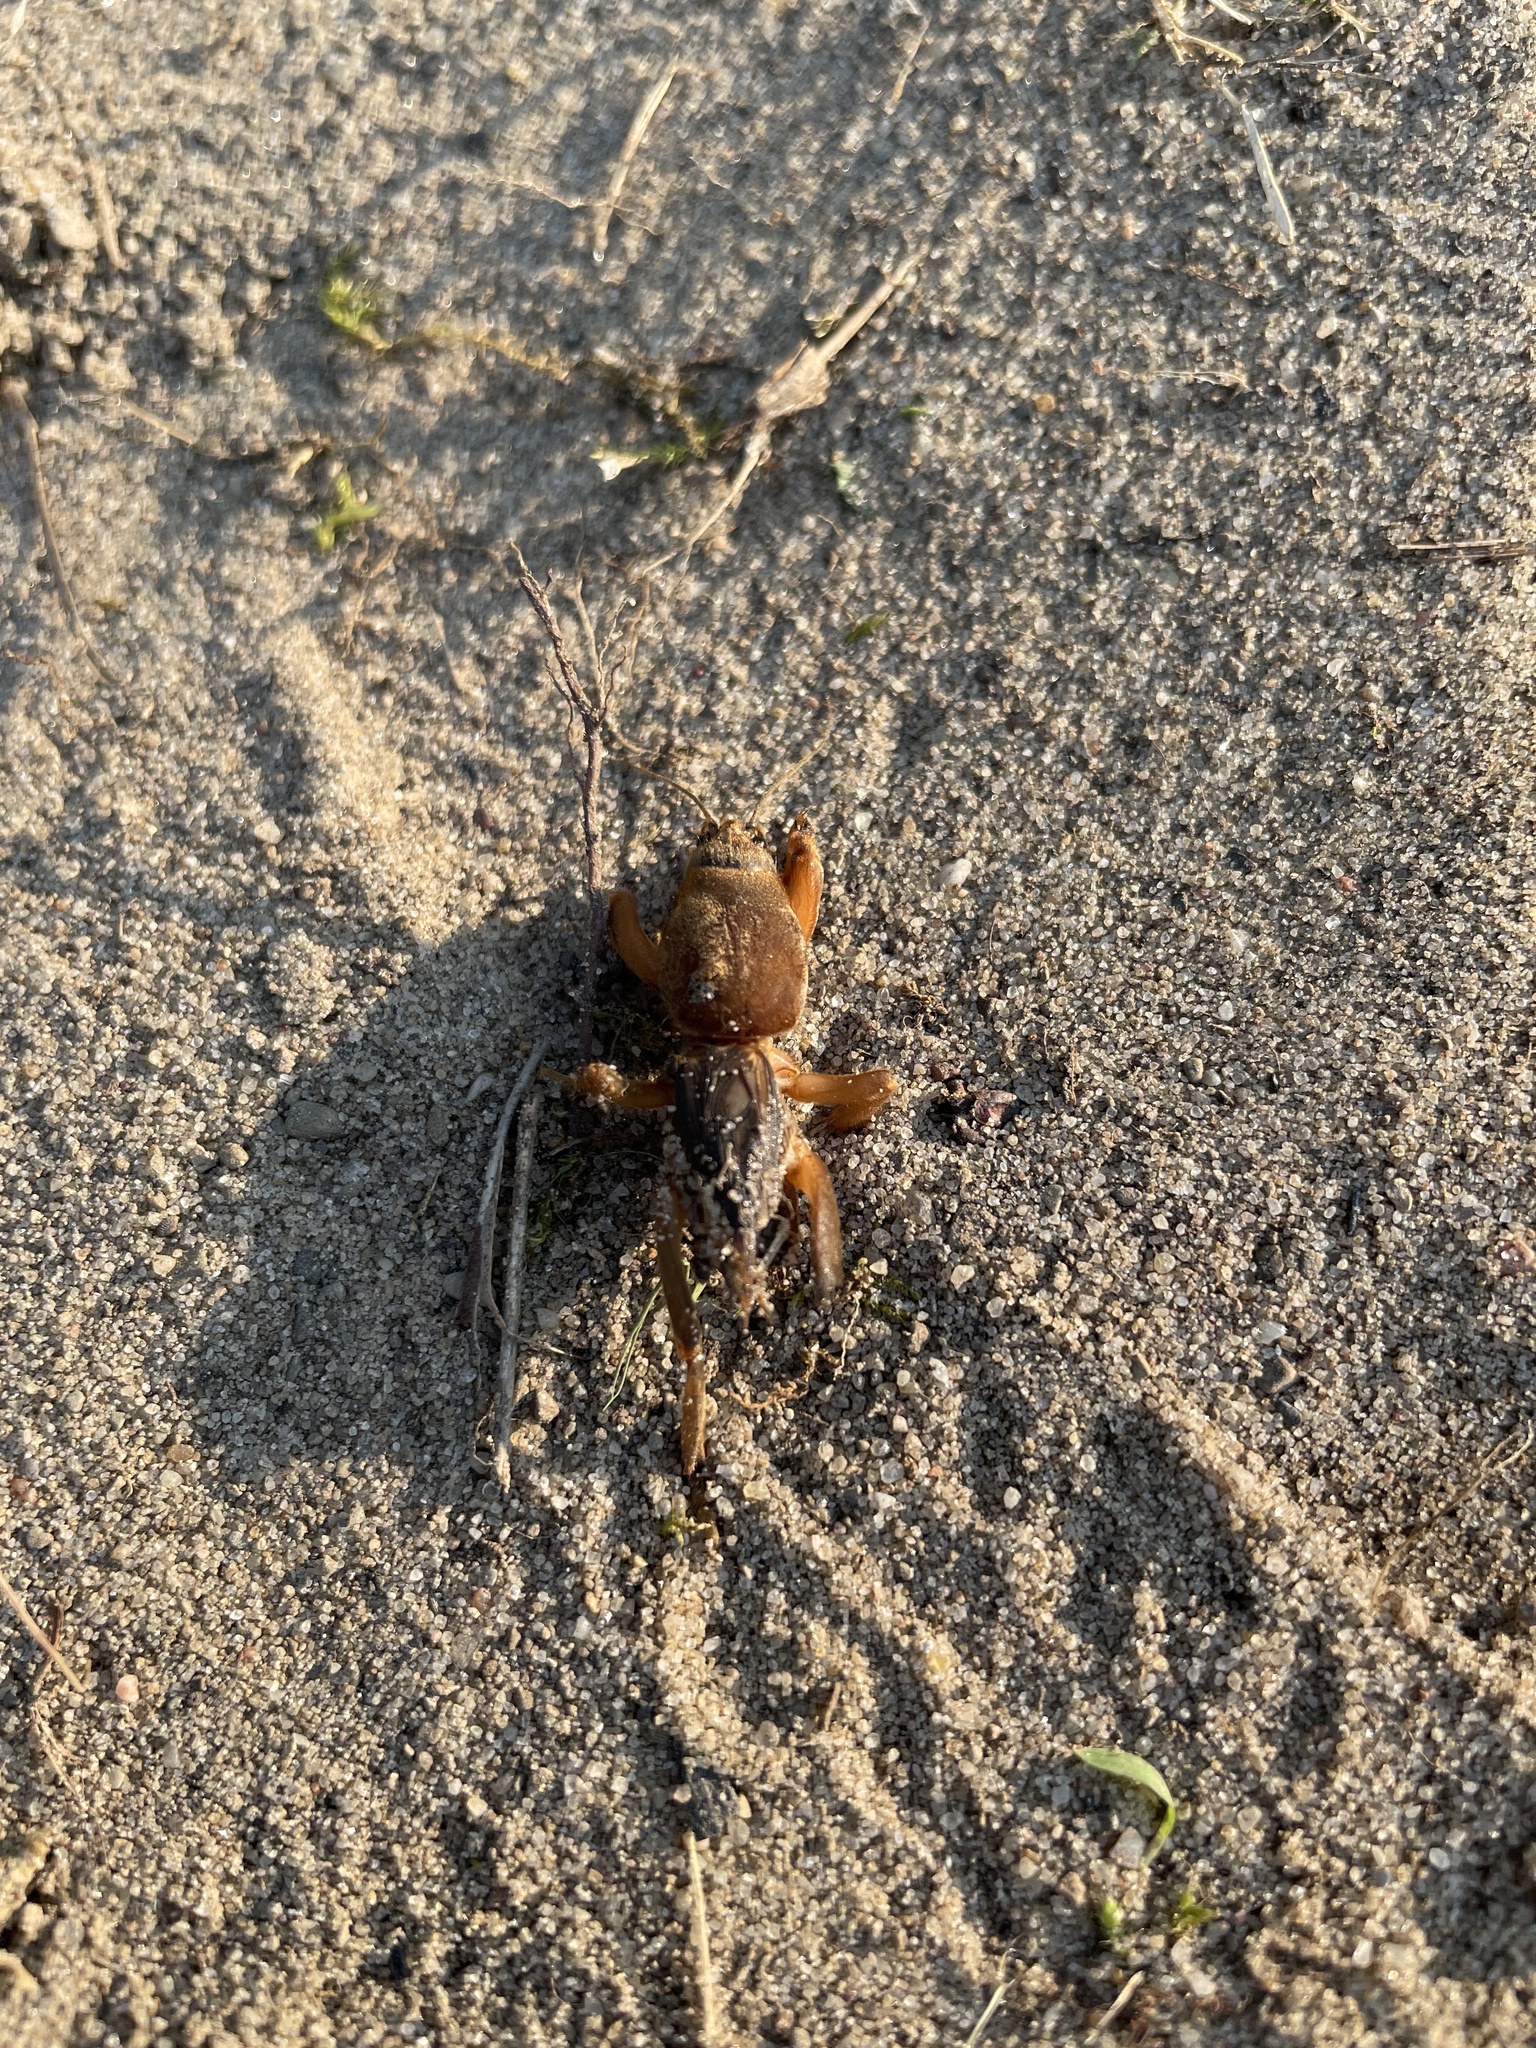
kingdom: Animalia
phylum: Arthropoda
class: Insecta
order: Orthoptera
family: Gryllotalpidae
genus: Neocurtilla
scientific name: Neocurtilla hexadactyla
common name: Northern mole cricket
